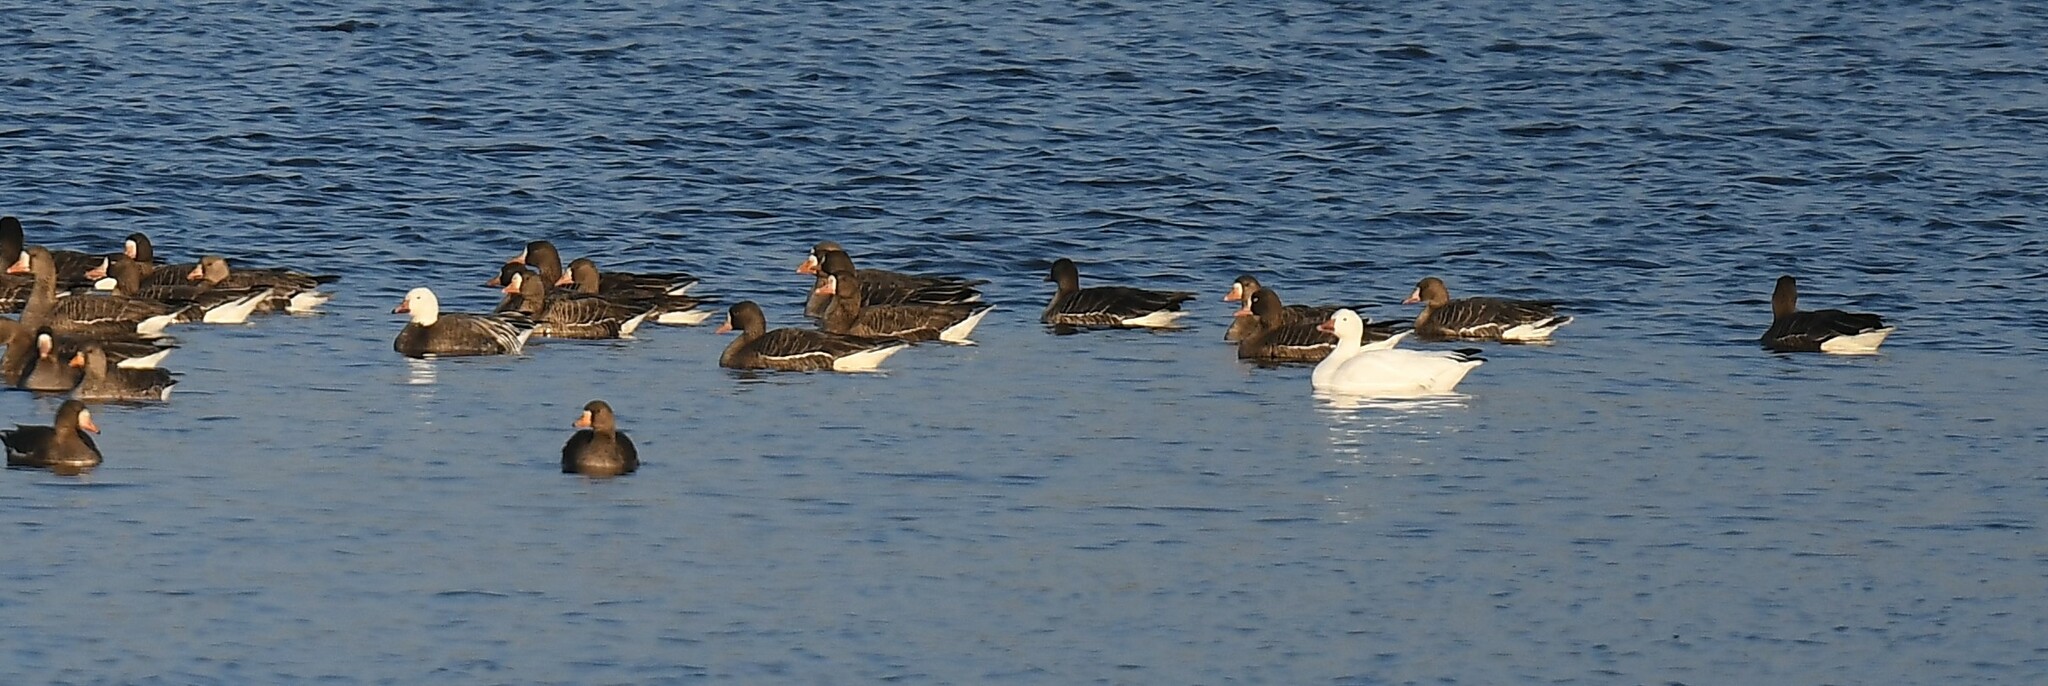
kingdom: Animalia
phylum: Chordata
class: Aves
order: Anseriformes
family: Anatidae
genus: Anser
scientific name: Anser caerulescens
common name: Snow goose
